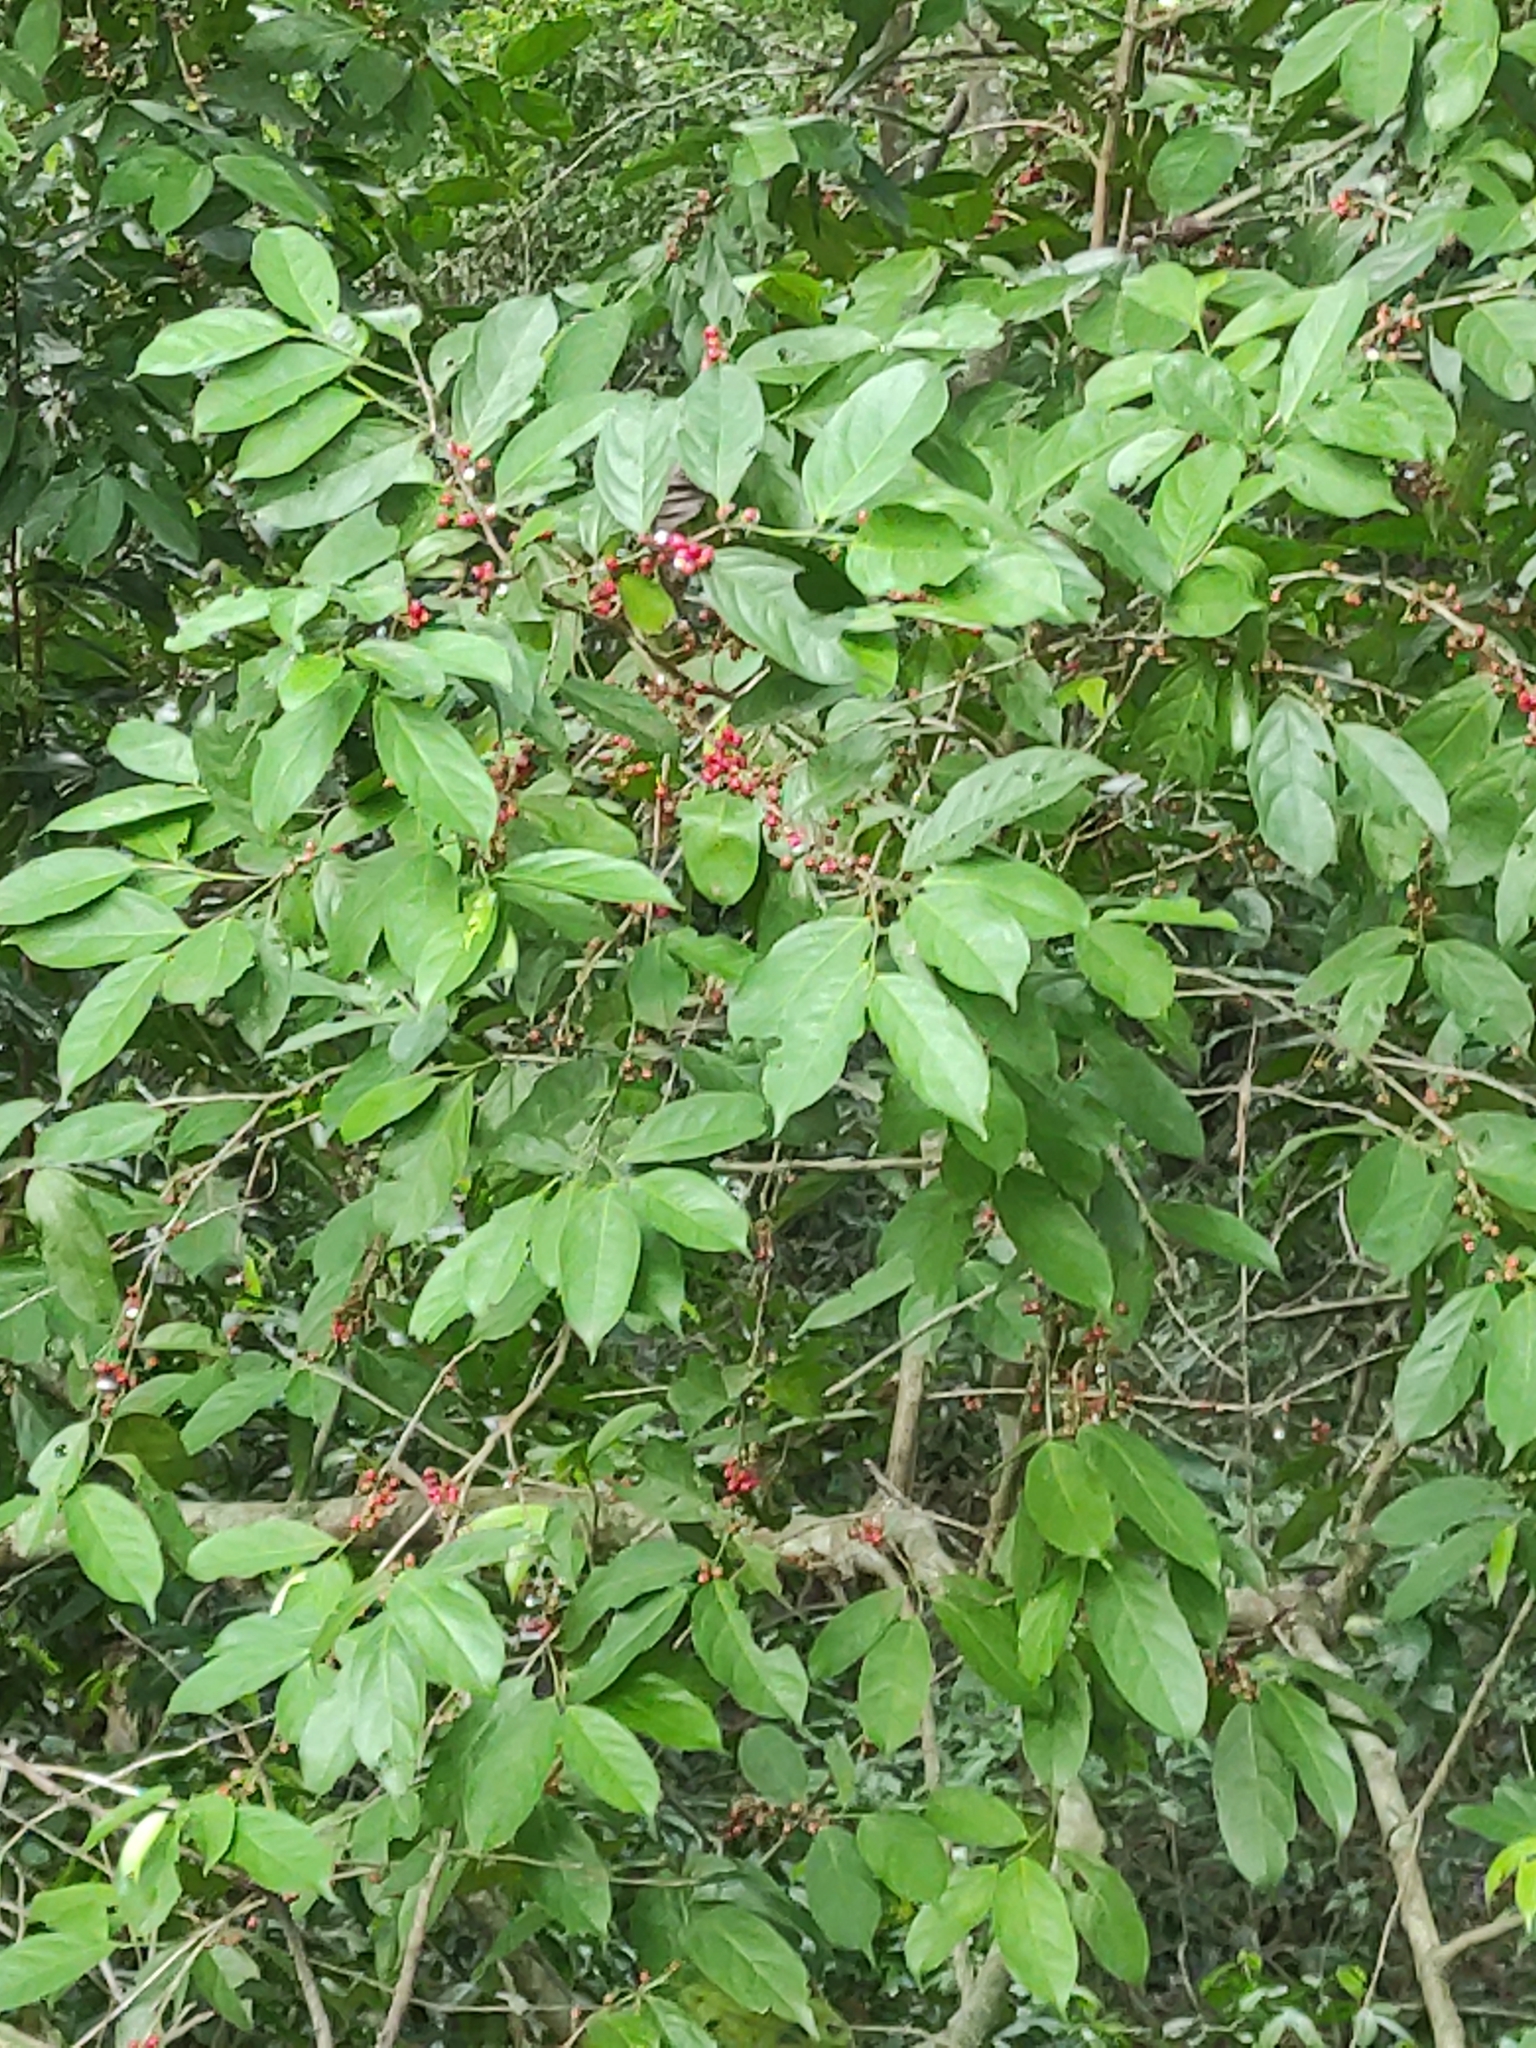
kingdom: Plantae
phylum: Tracheophyta
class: Magnoliopsida
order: Malpighiales
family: Lacistemataceae
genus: Lacistema
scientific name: Lacistema aggregatum
